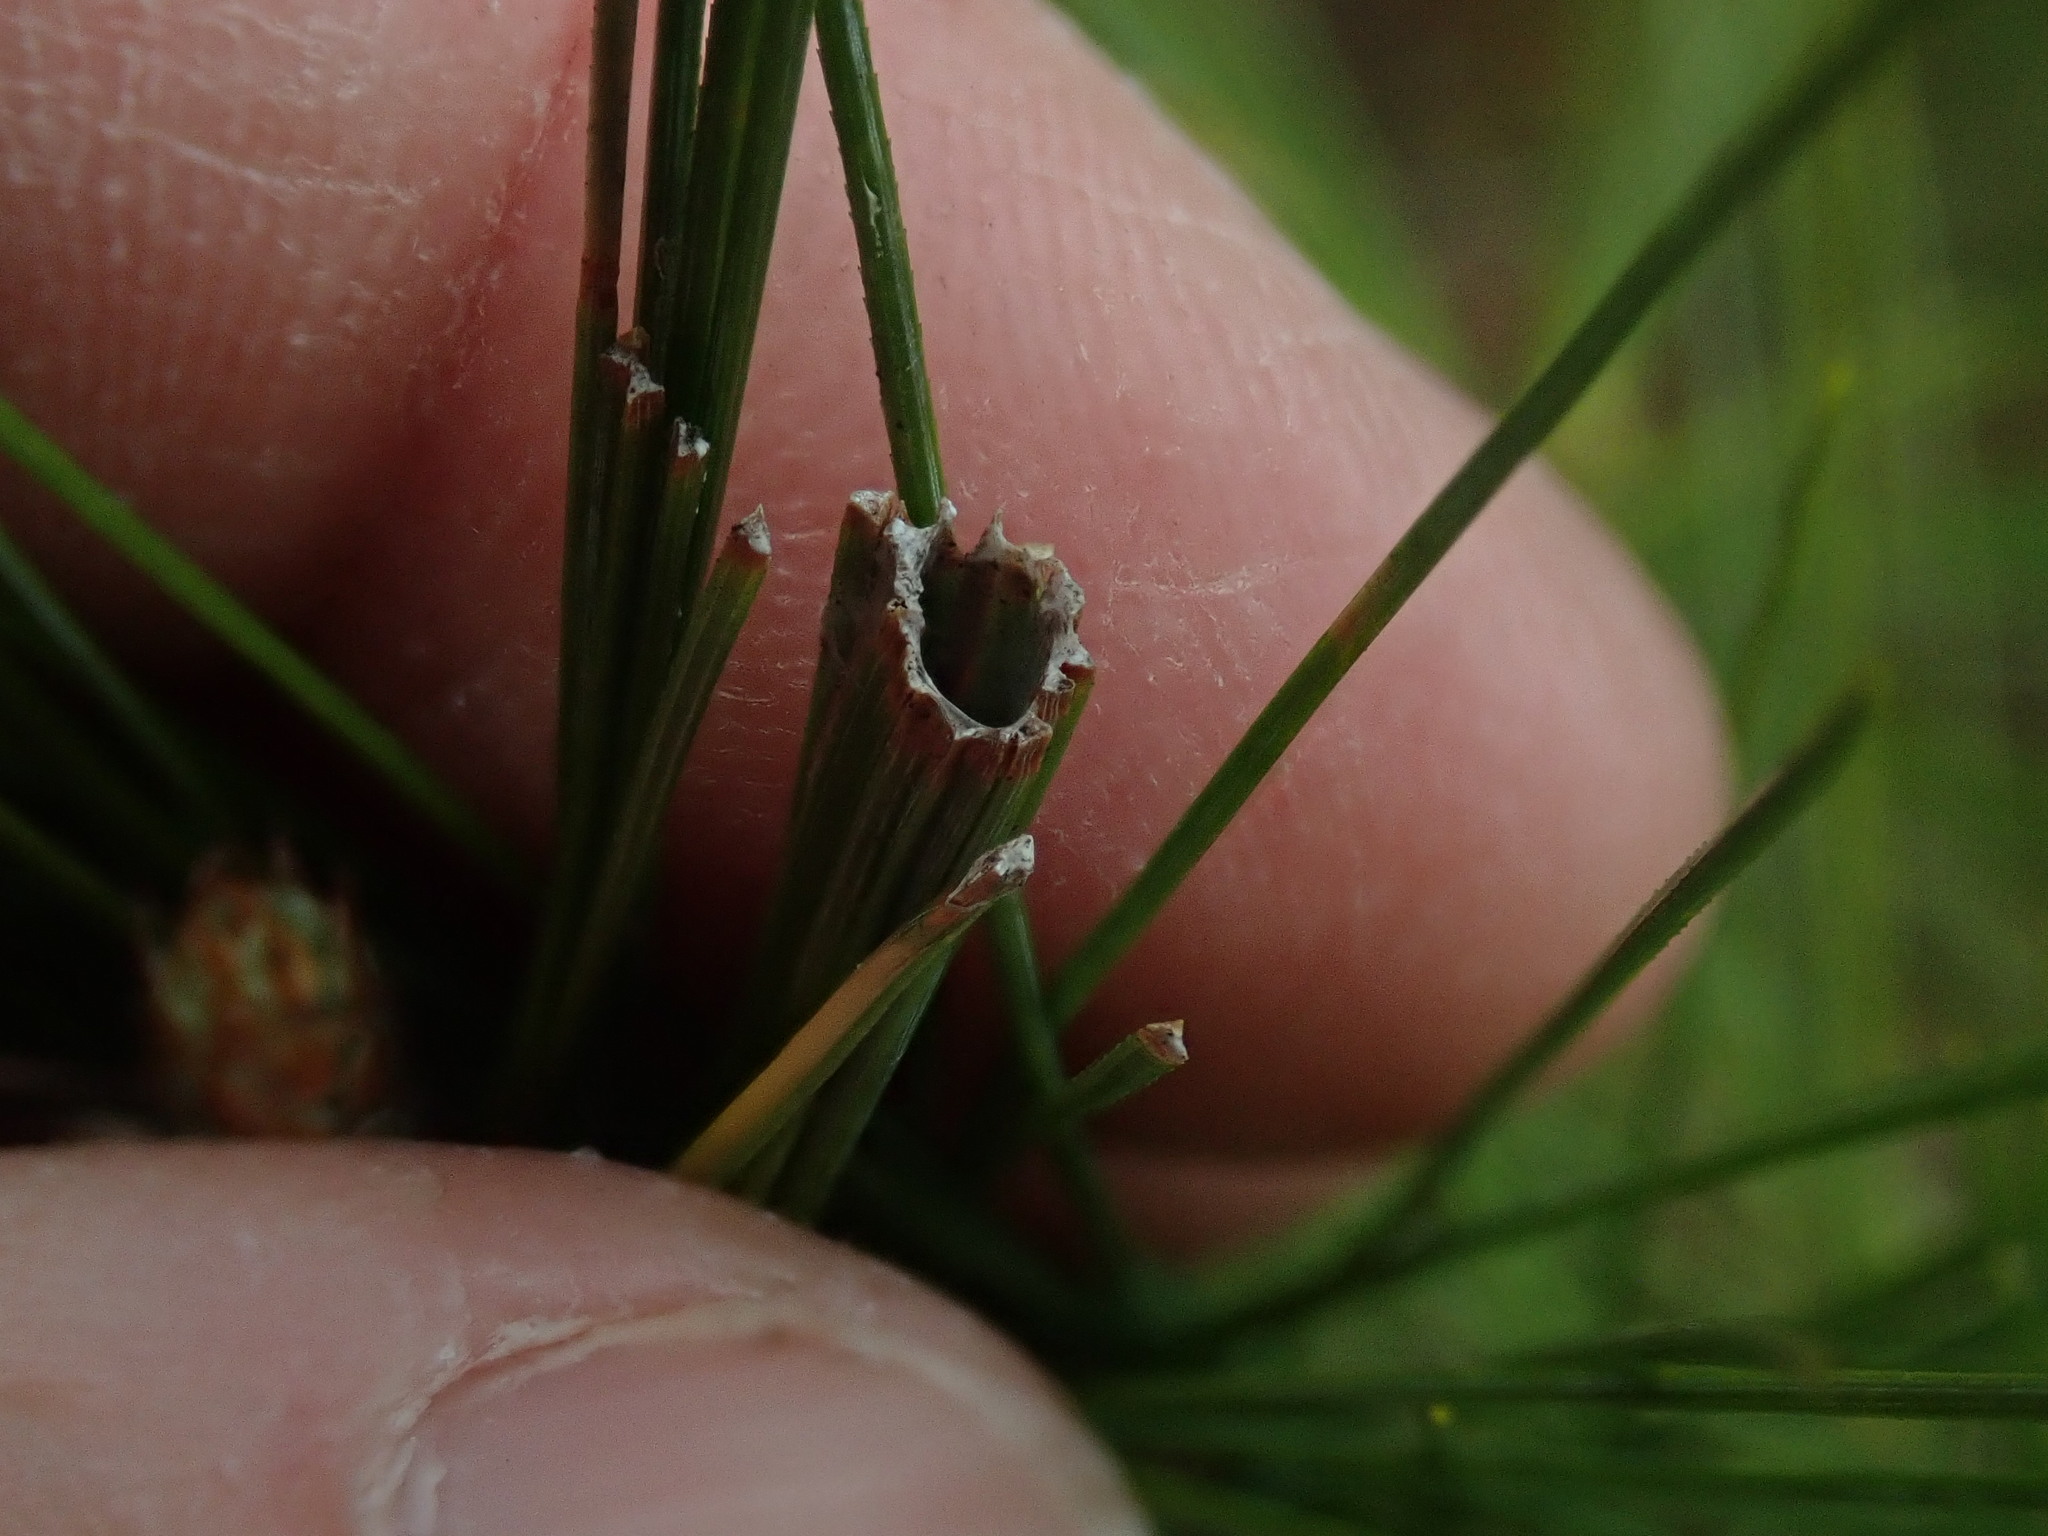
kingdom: Animalia
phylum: Arthropoda
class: Insecta
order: Lepidoptera
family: Tortricidae
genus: Argyrotaenia
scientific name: Argyrotaenia pinatubana
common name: Pine tube moth
